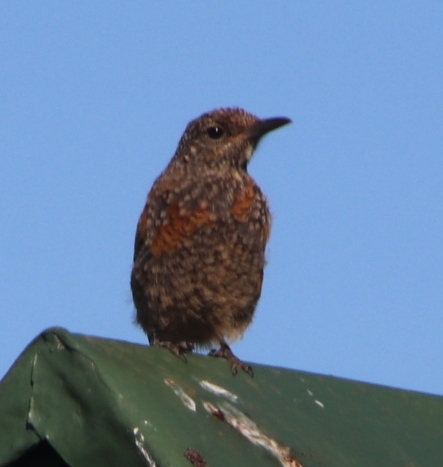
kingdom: Animalia
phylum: Chordata
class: Aves
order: Passeriformes
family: Muscicapidae
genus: Monticola
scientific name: Monticola rupestris
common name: Cape rock thrush
